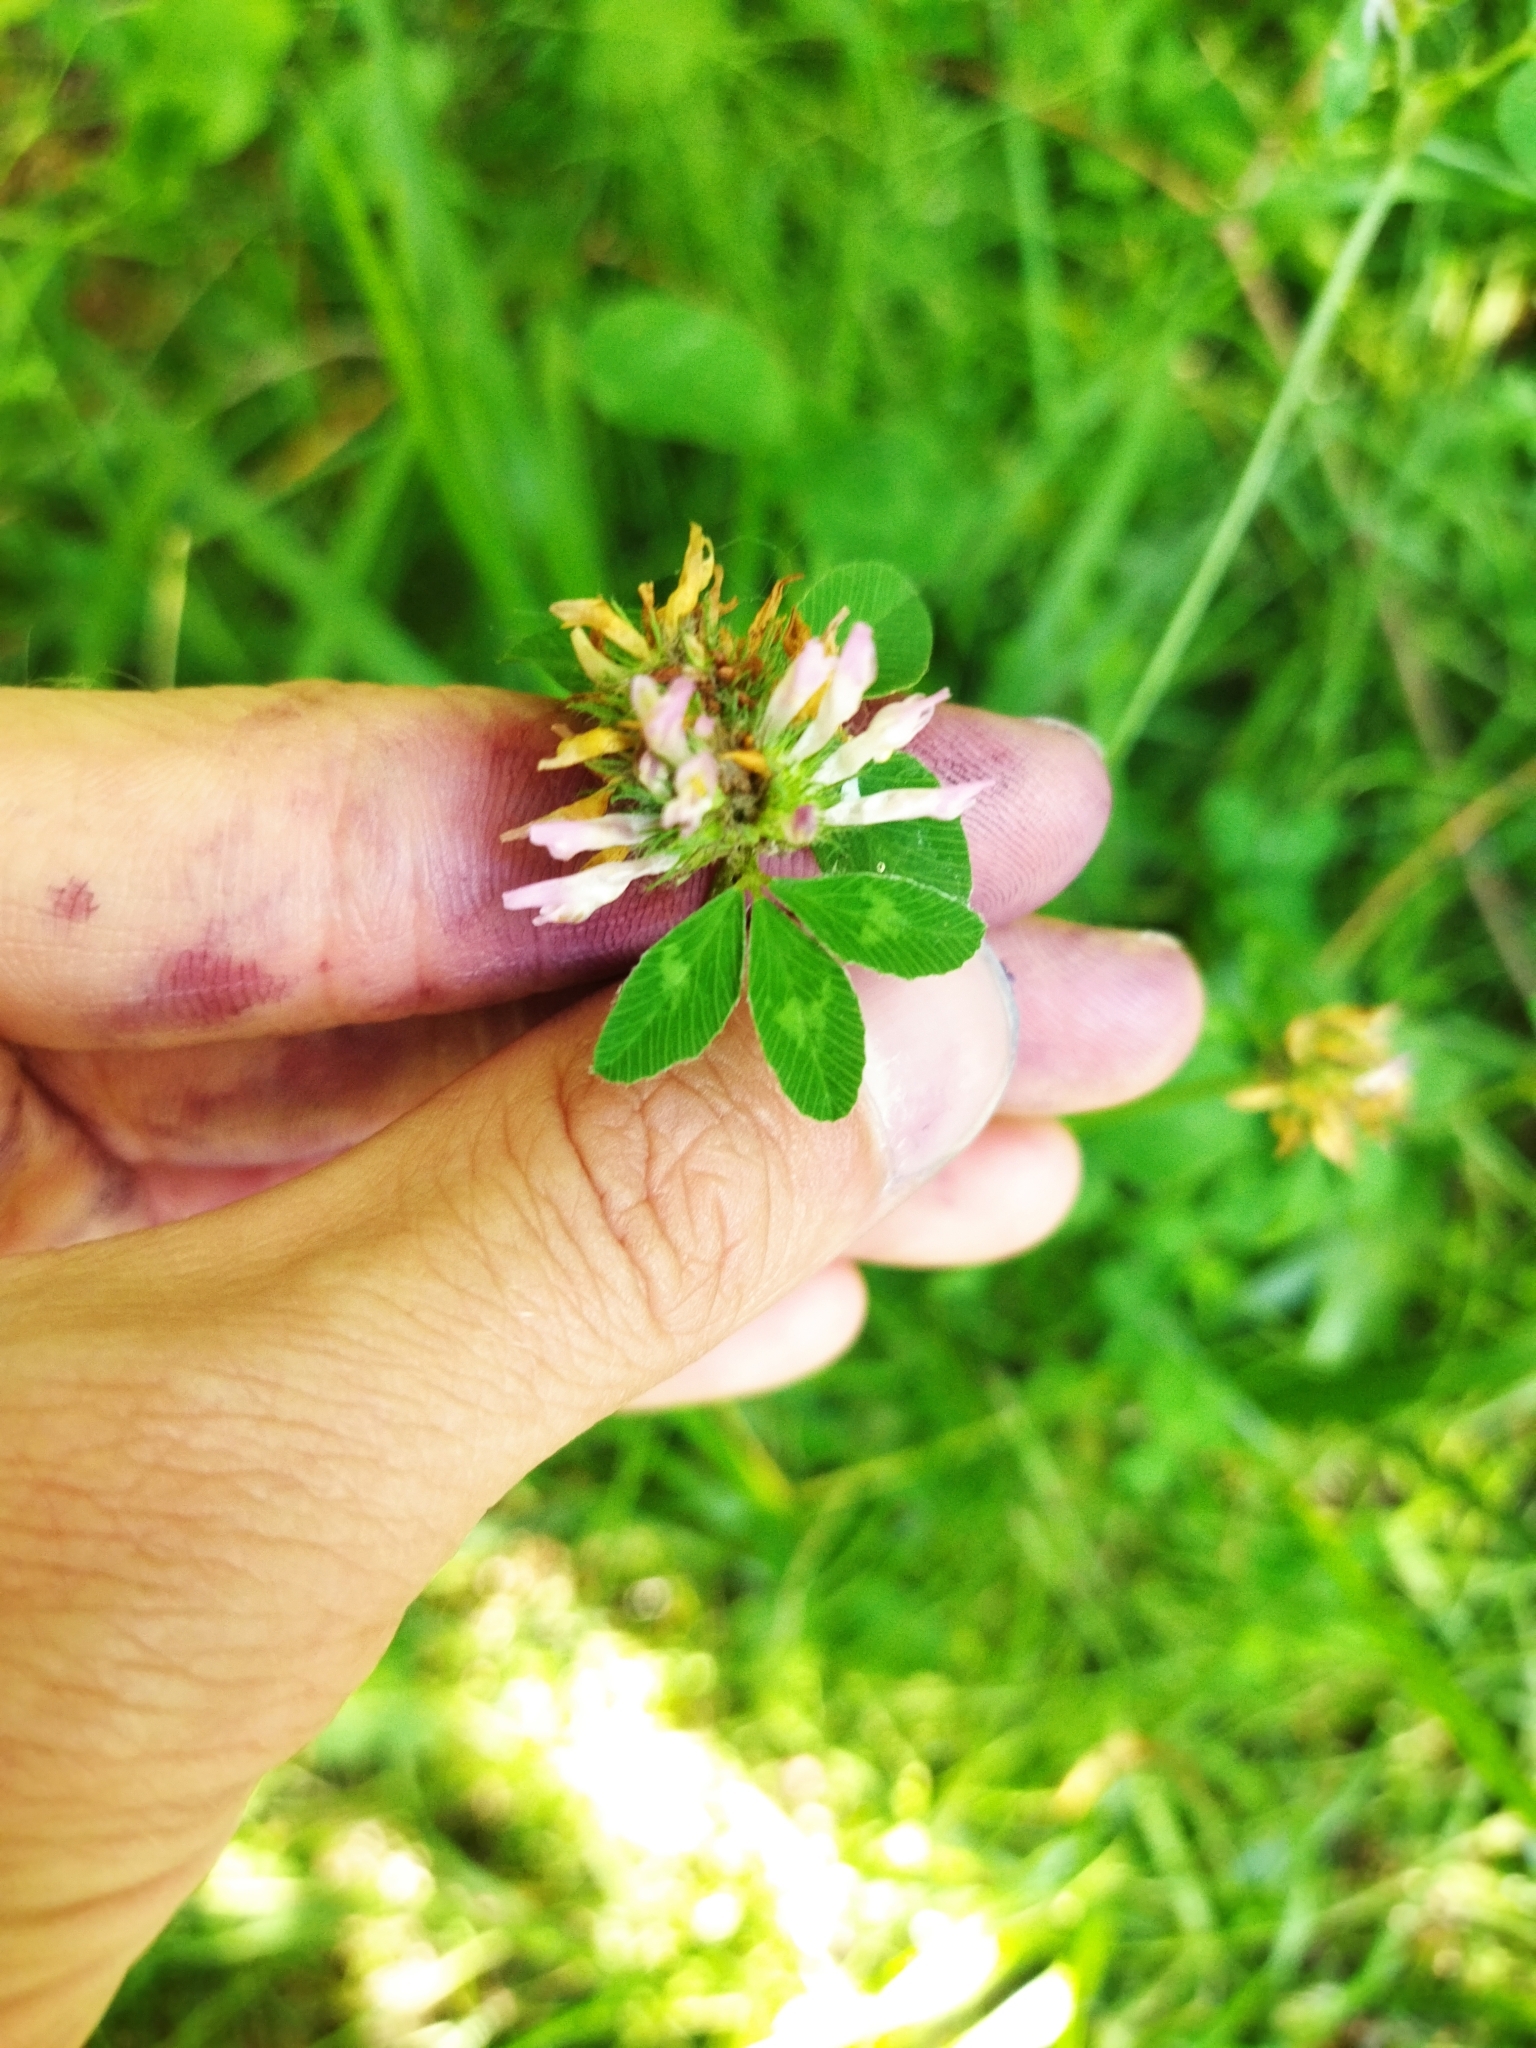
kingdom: Plantae
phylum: Tracheophyta
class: Magnoliopsida
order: Fabales
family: Fabaceae
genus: Trifolium
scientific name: Trifolium pratense
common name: Red clover
